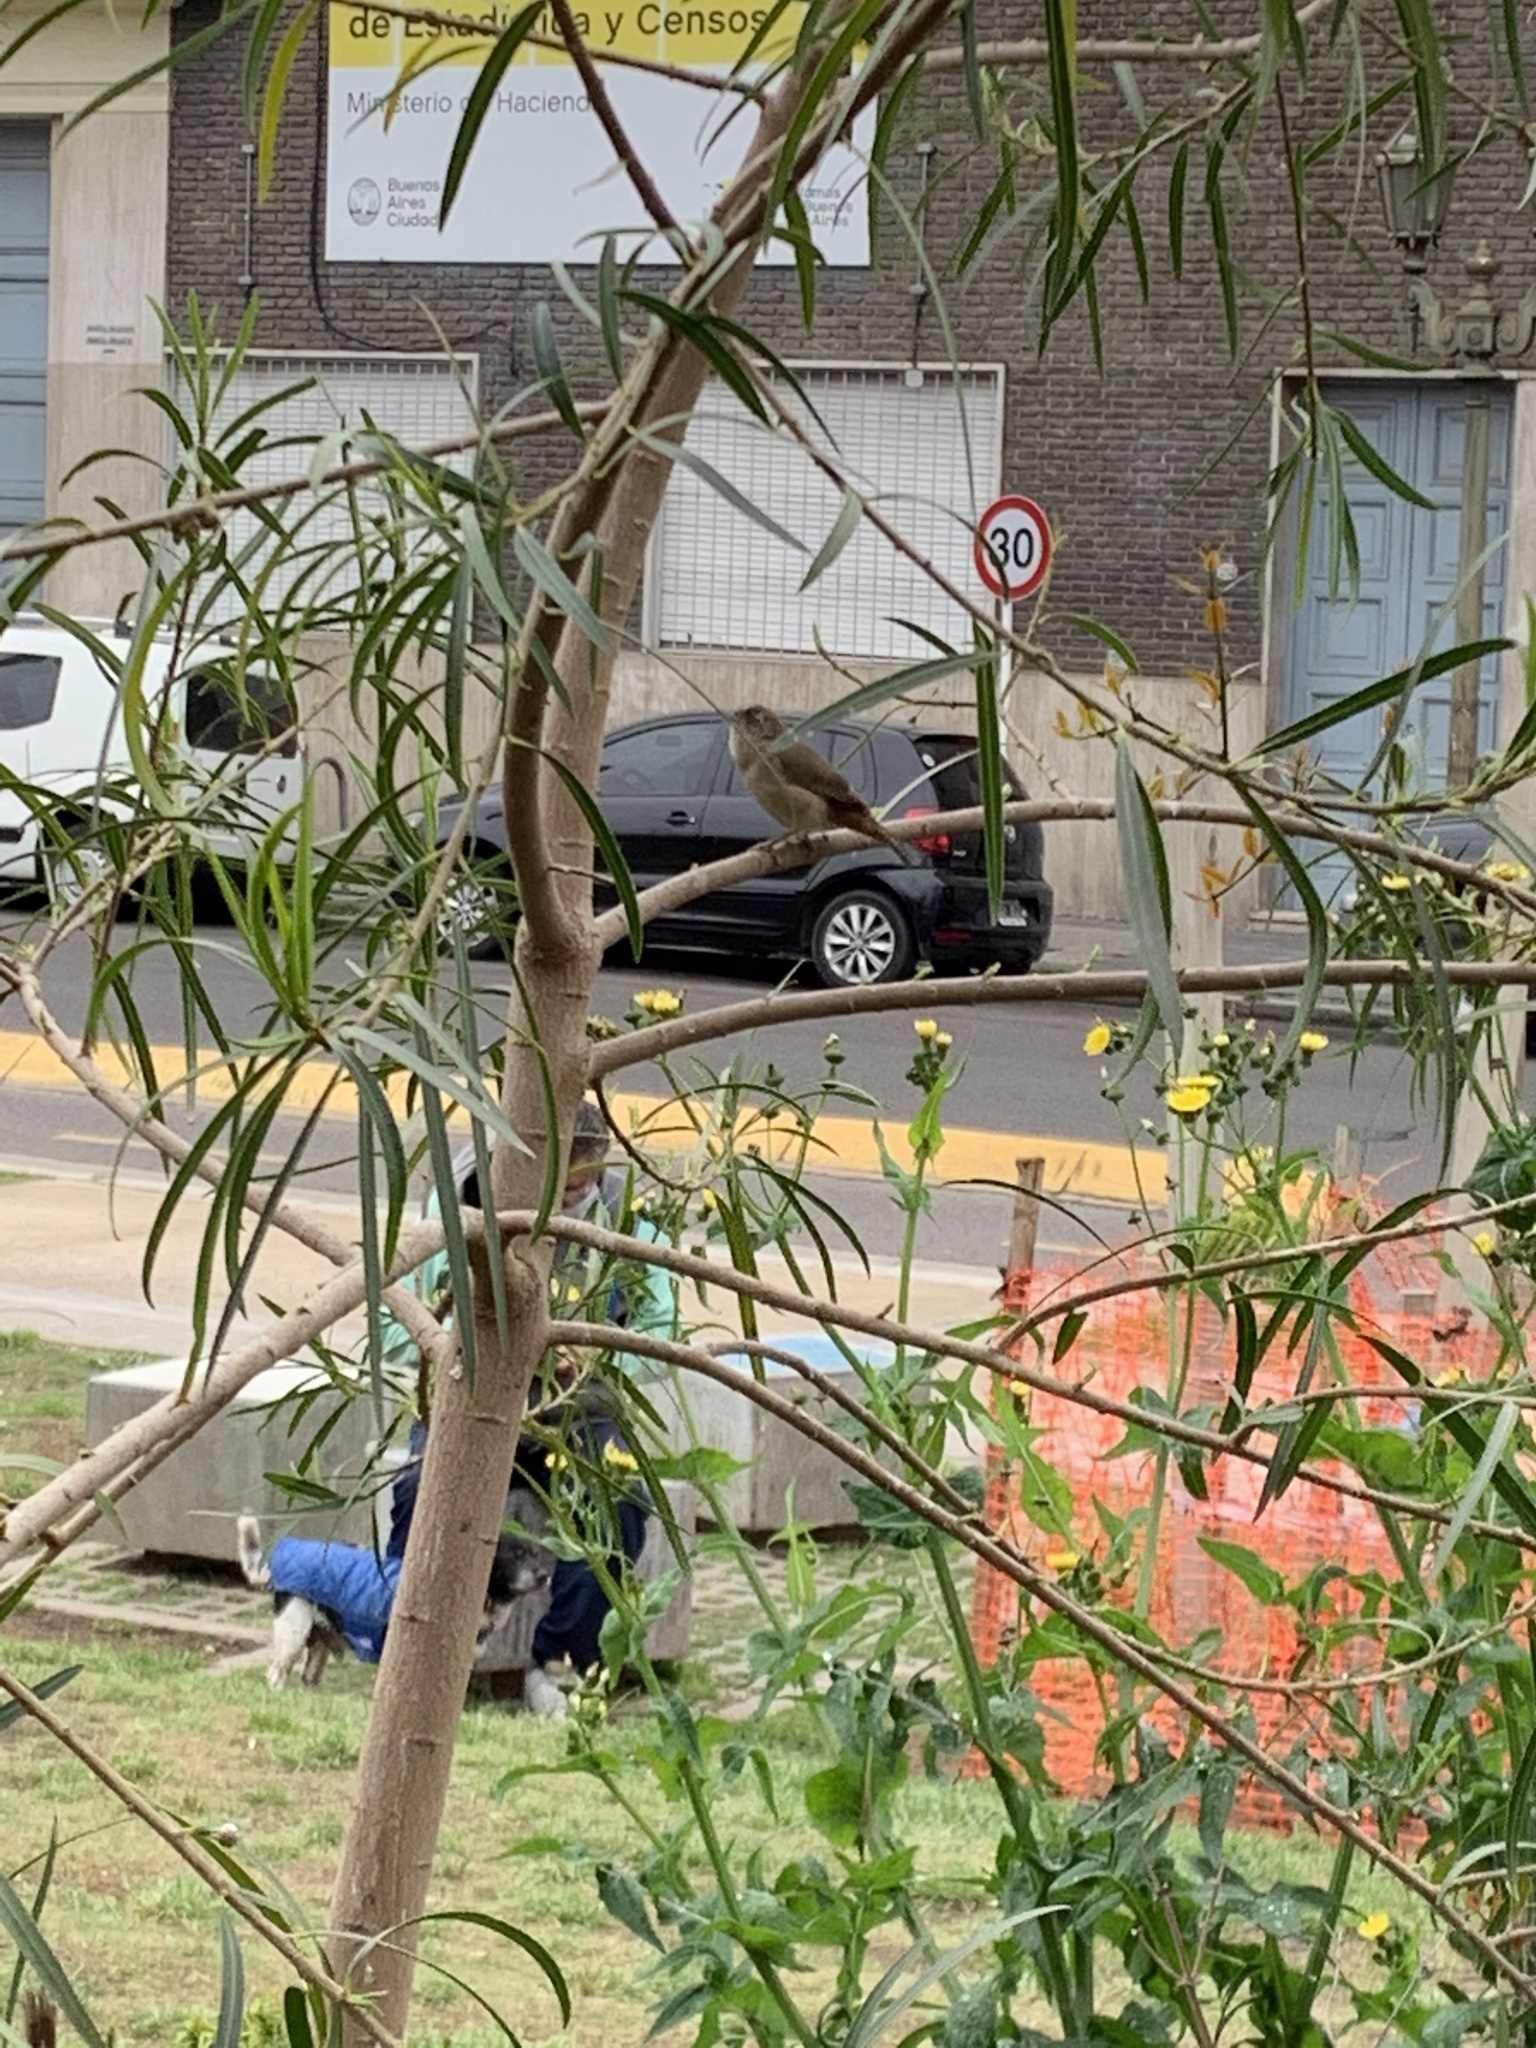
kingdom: Animalia
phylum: Chordata
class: Aves
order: Passeriformes
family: Troglodytidae
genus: Troglodytes
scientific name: Troglodytes aedon
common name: House wren
